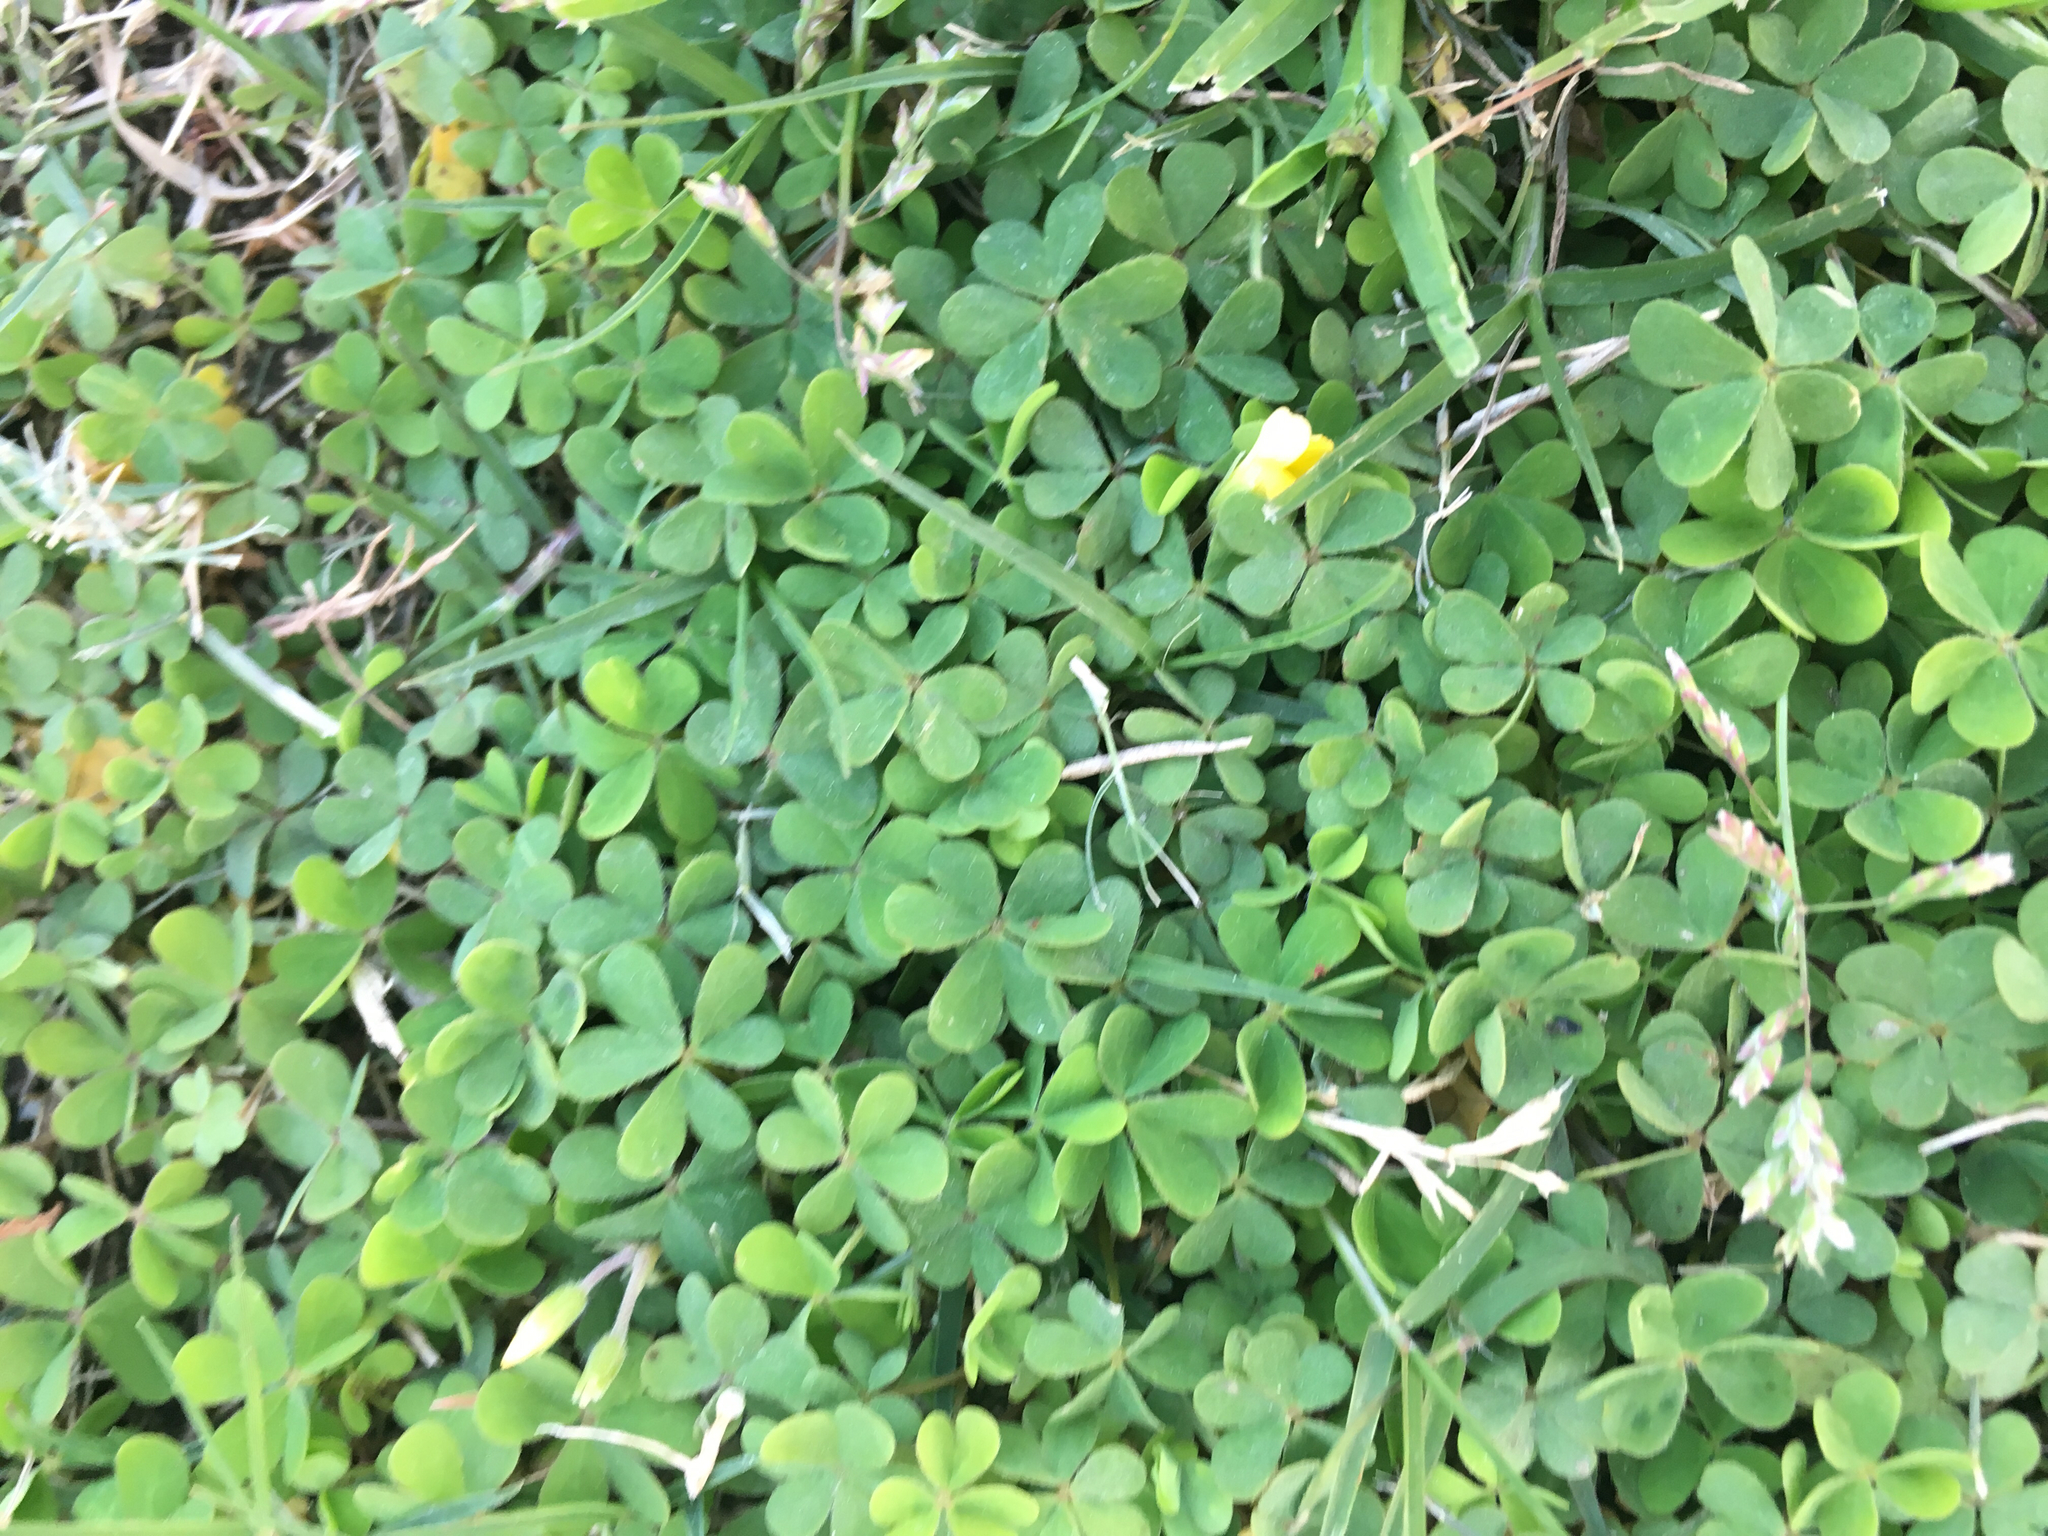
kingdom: Plantae
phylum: Tracheophyta
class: Magnoliopsida
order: Oxalidales
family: Oxalidaceae
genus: Oxalis
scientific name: Oxalis corniculata
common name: Procumbent yellow-sorrel
